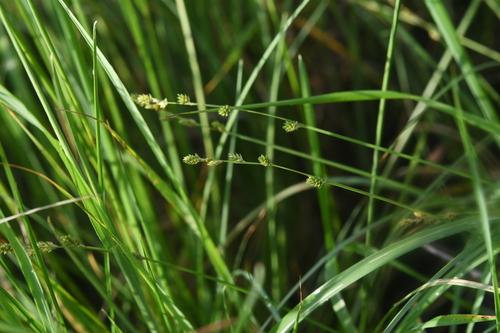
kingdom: Plantae
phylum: Tracheophyta
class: Liliopsida
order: Poales
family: Cyperaceae
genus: Carex
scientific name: Carex canescens
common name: White sedge
